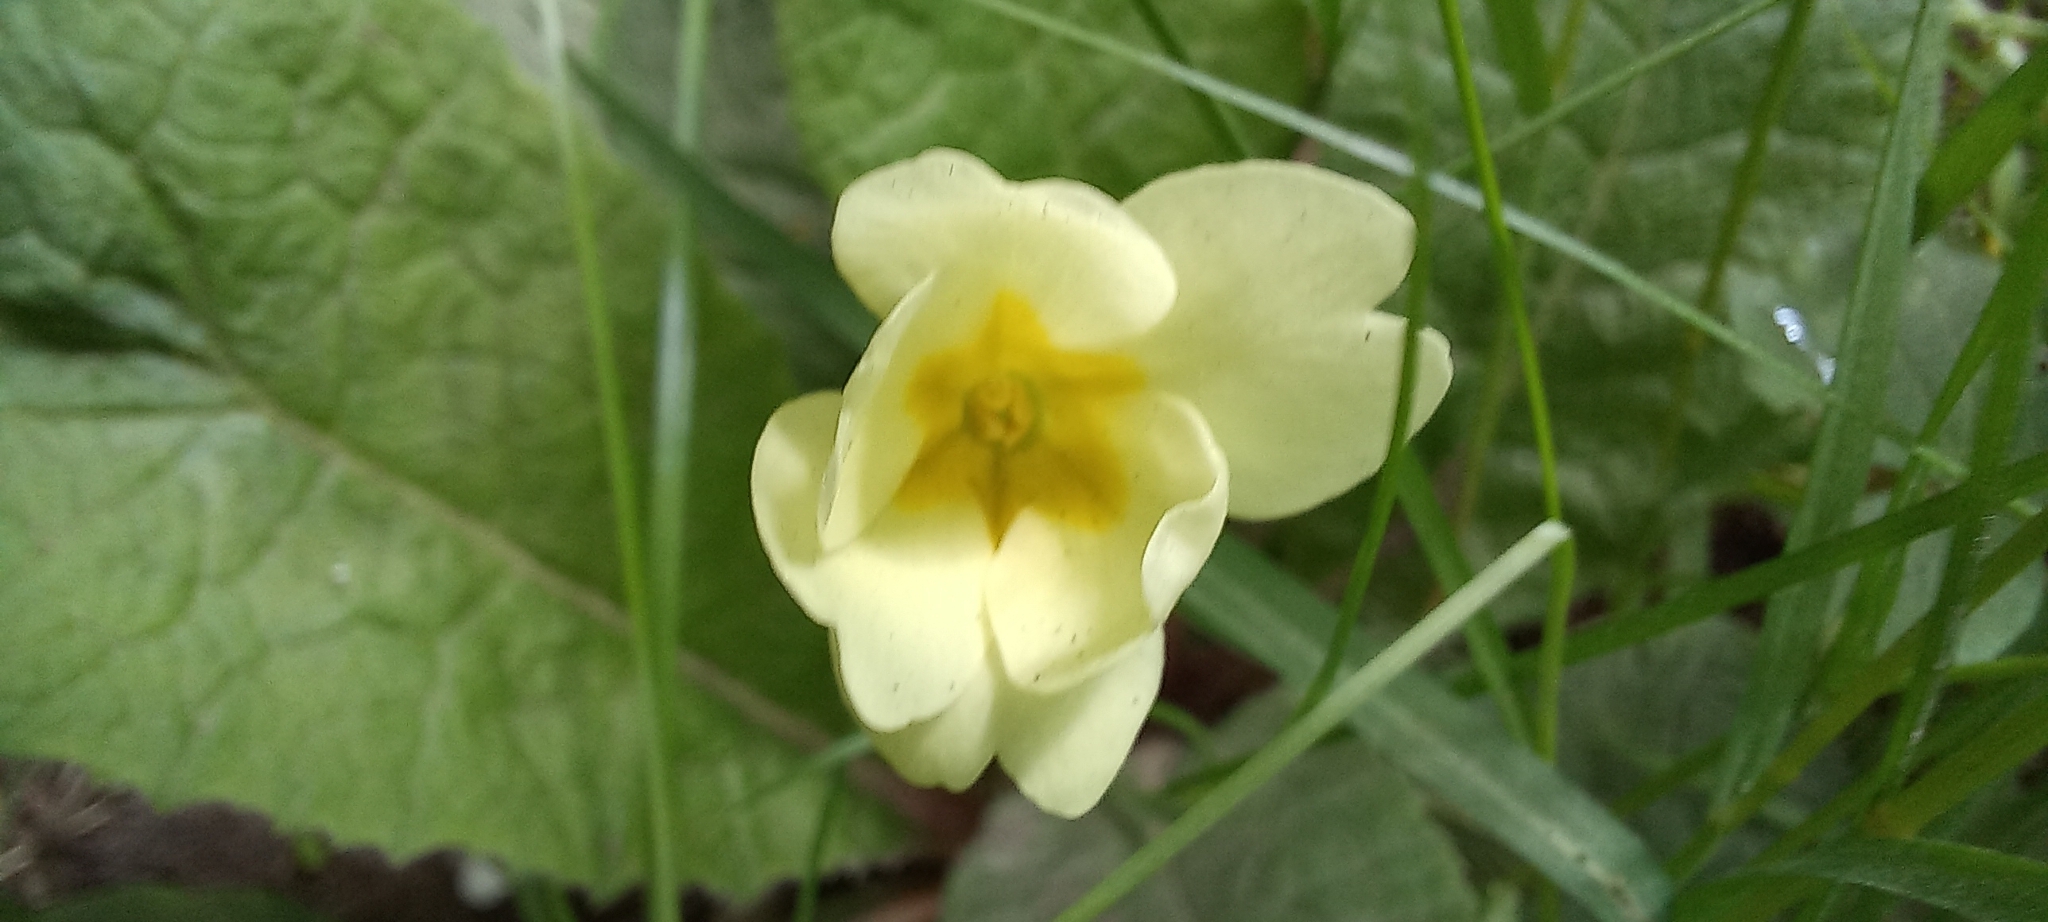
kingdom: Plantae
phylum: Tracheophyta
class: Magnoliopsida
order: Ericales
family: Primulaceae
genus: Primula
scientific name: Primula vulgaris
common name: Primrose
